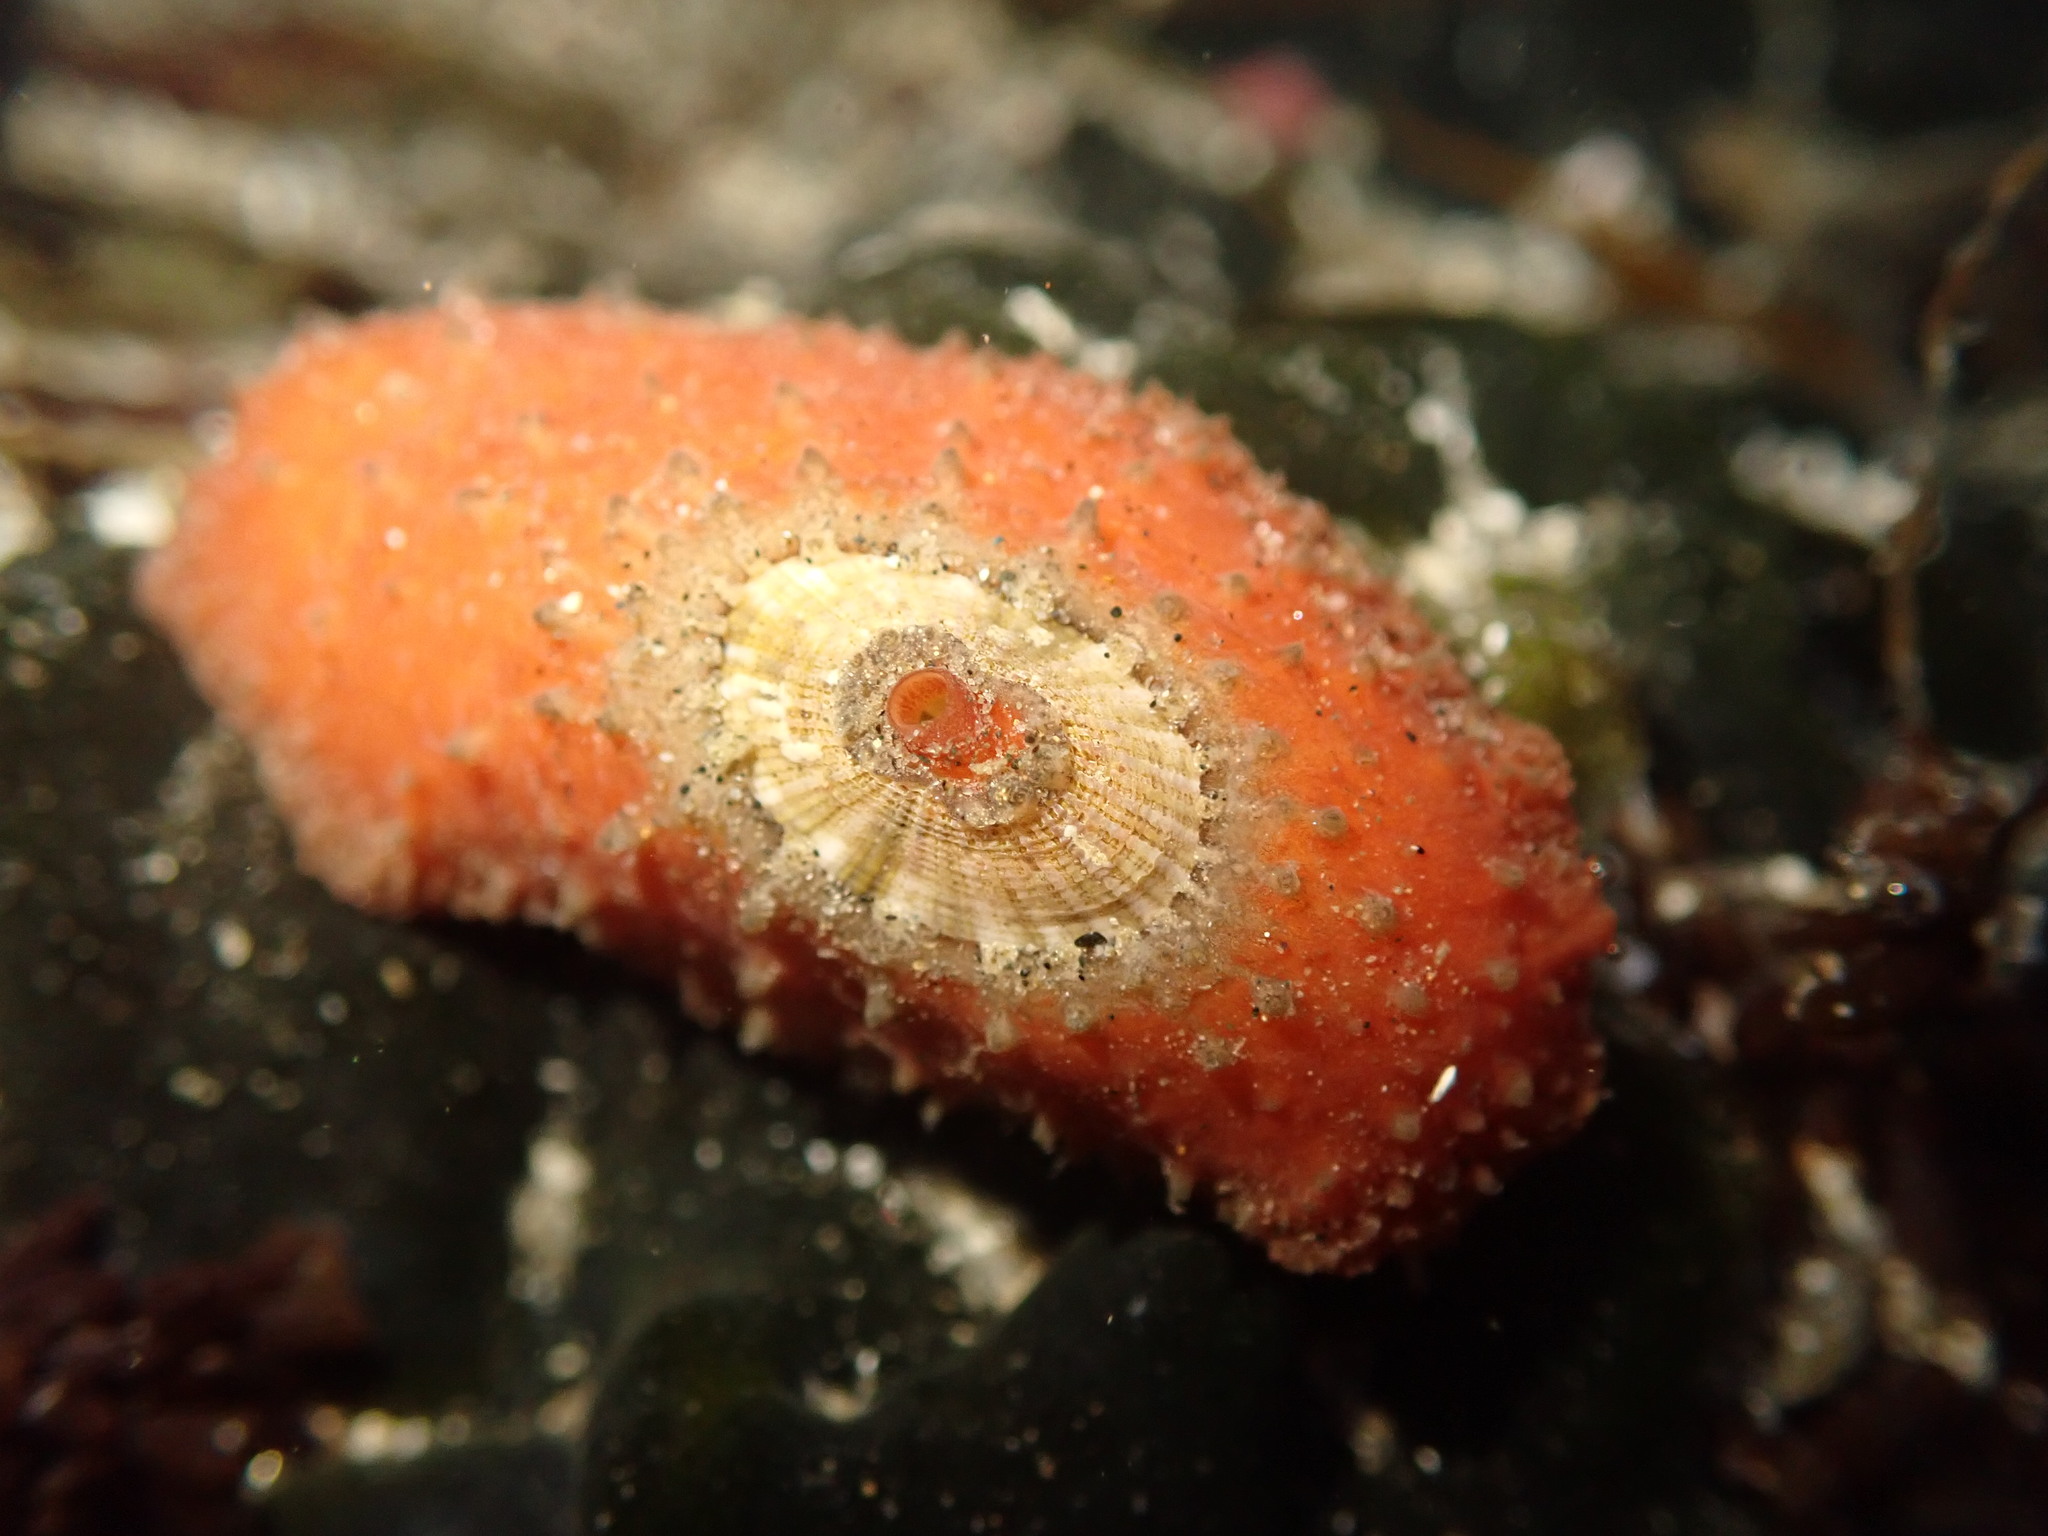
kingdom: Animalia
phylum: Mollusca
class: Gastropoda
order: Lepetellida
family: Fissurellidae
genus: Fissurellidea
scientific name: Fissurellidea bimaculata
